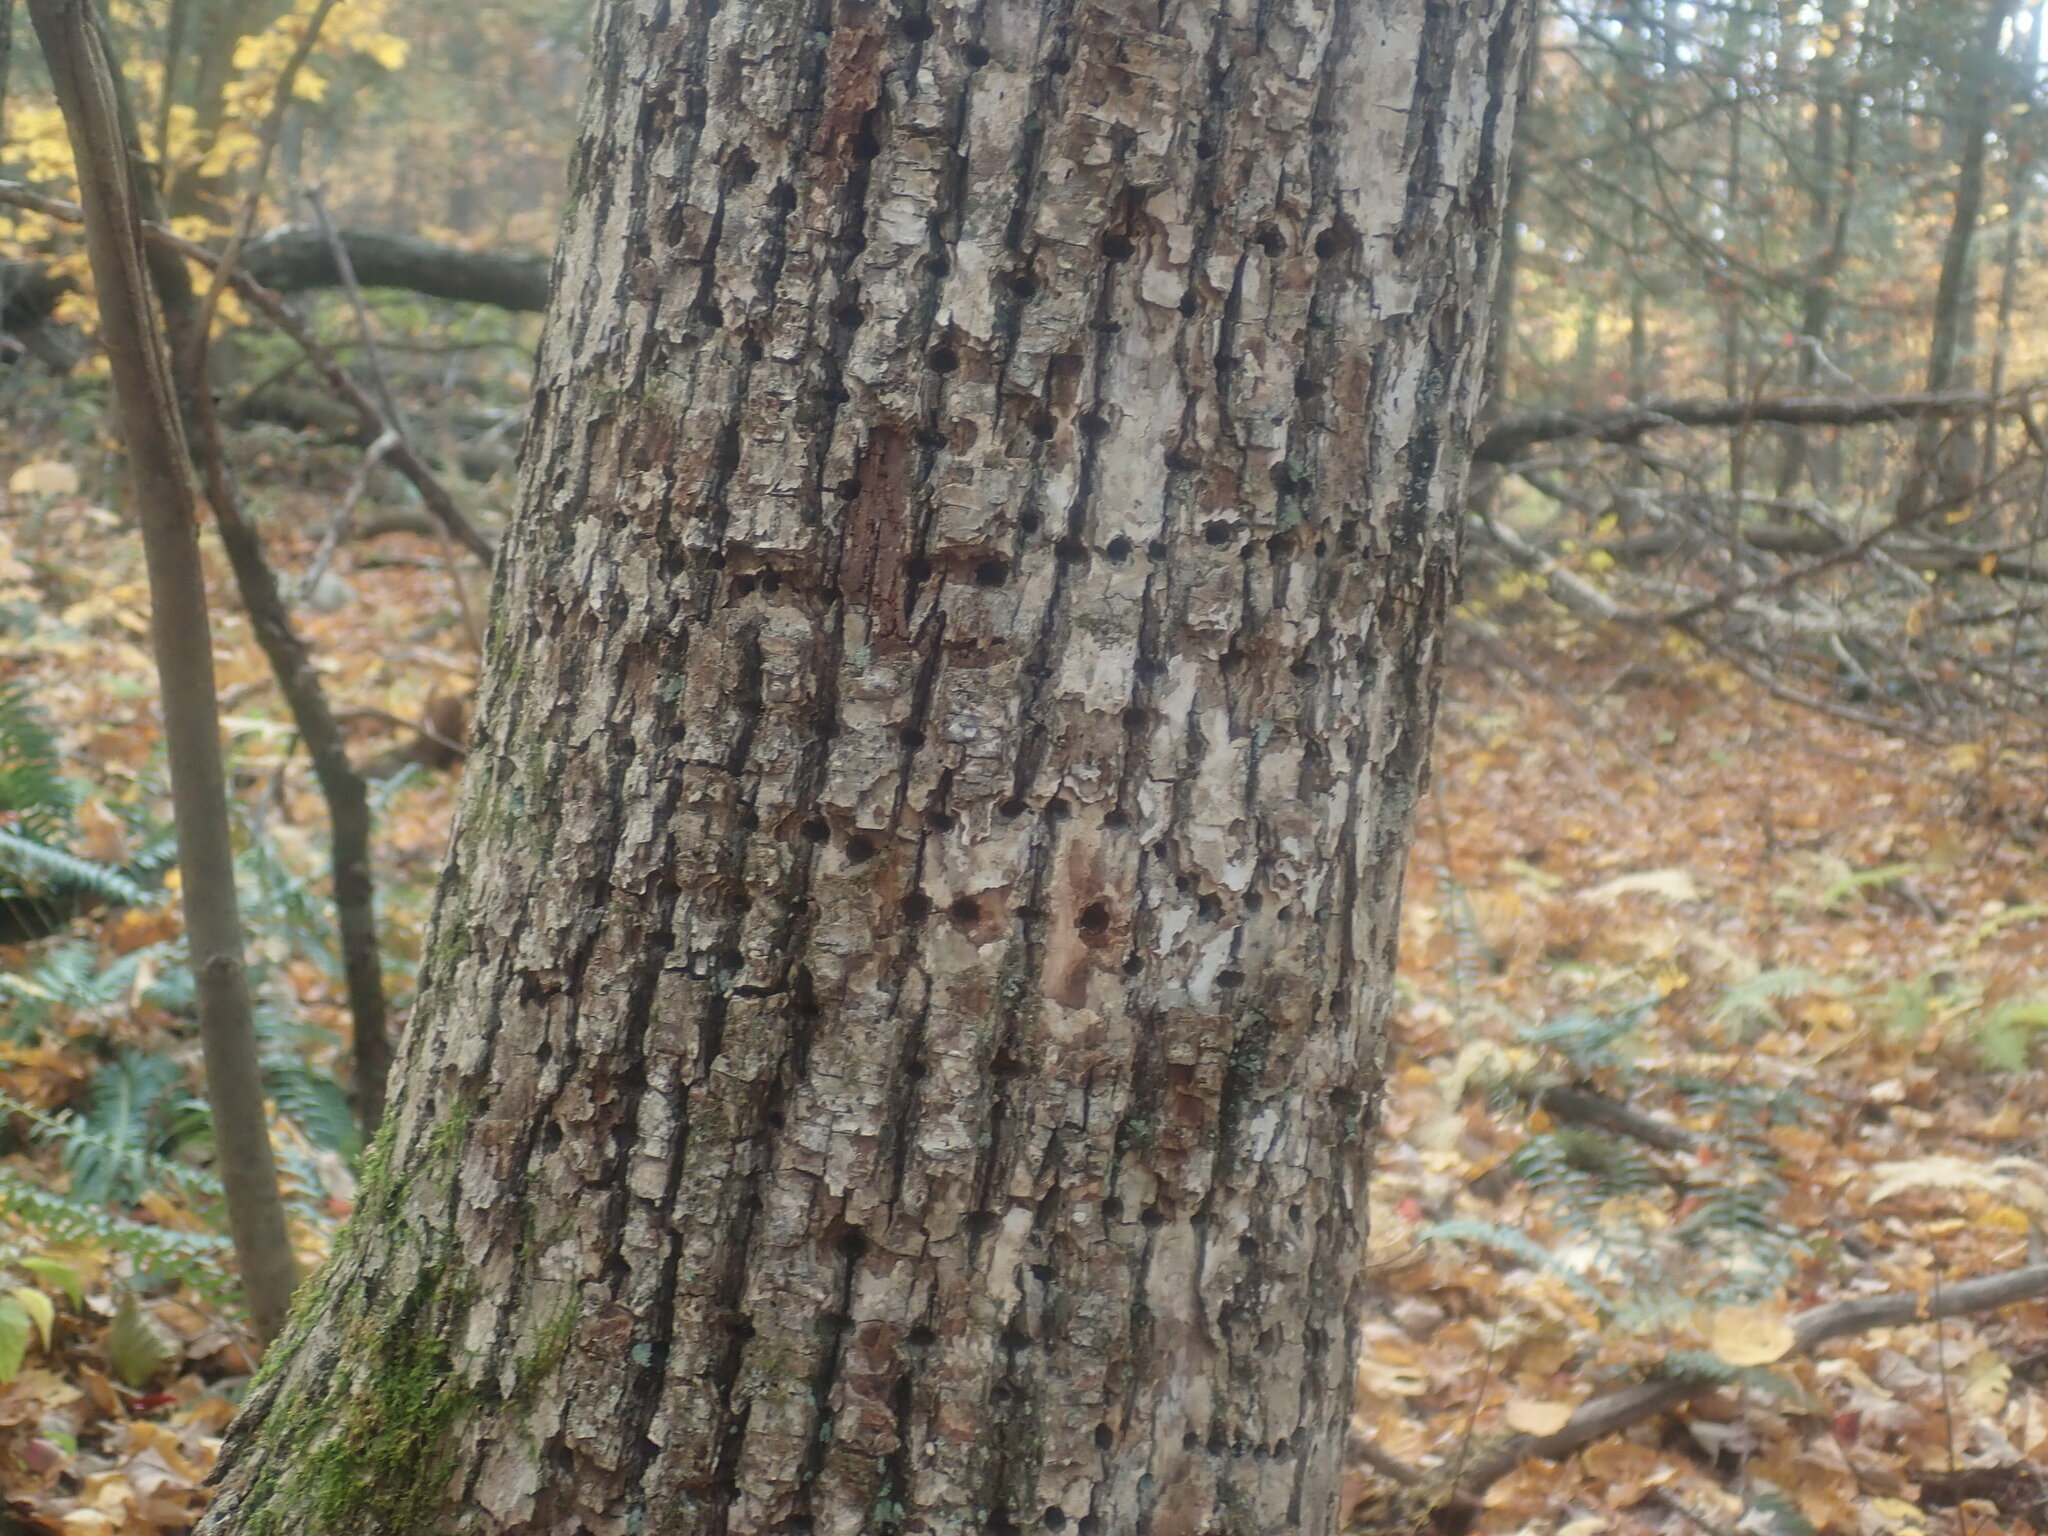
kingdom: Animalia
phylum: Chordata
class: Aves
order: Piciformes
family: Picidae
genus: Sphyrapicus
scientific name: Sphyrapicus varius
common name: Yellow-bellied sapsucker
